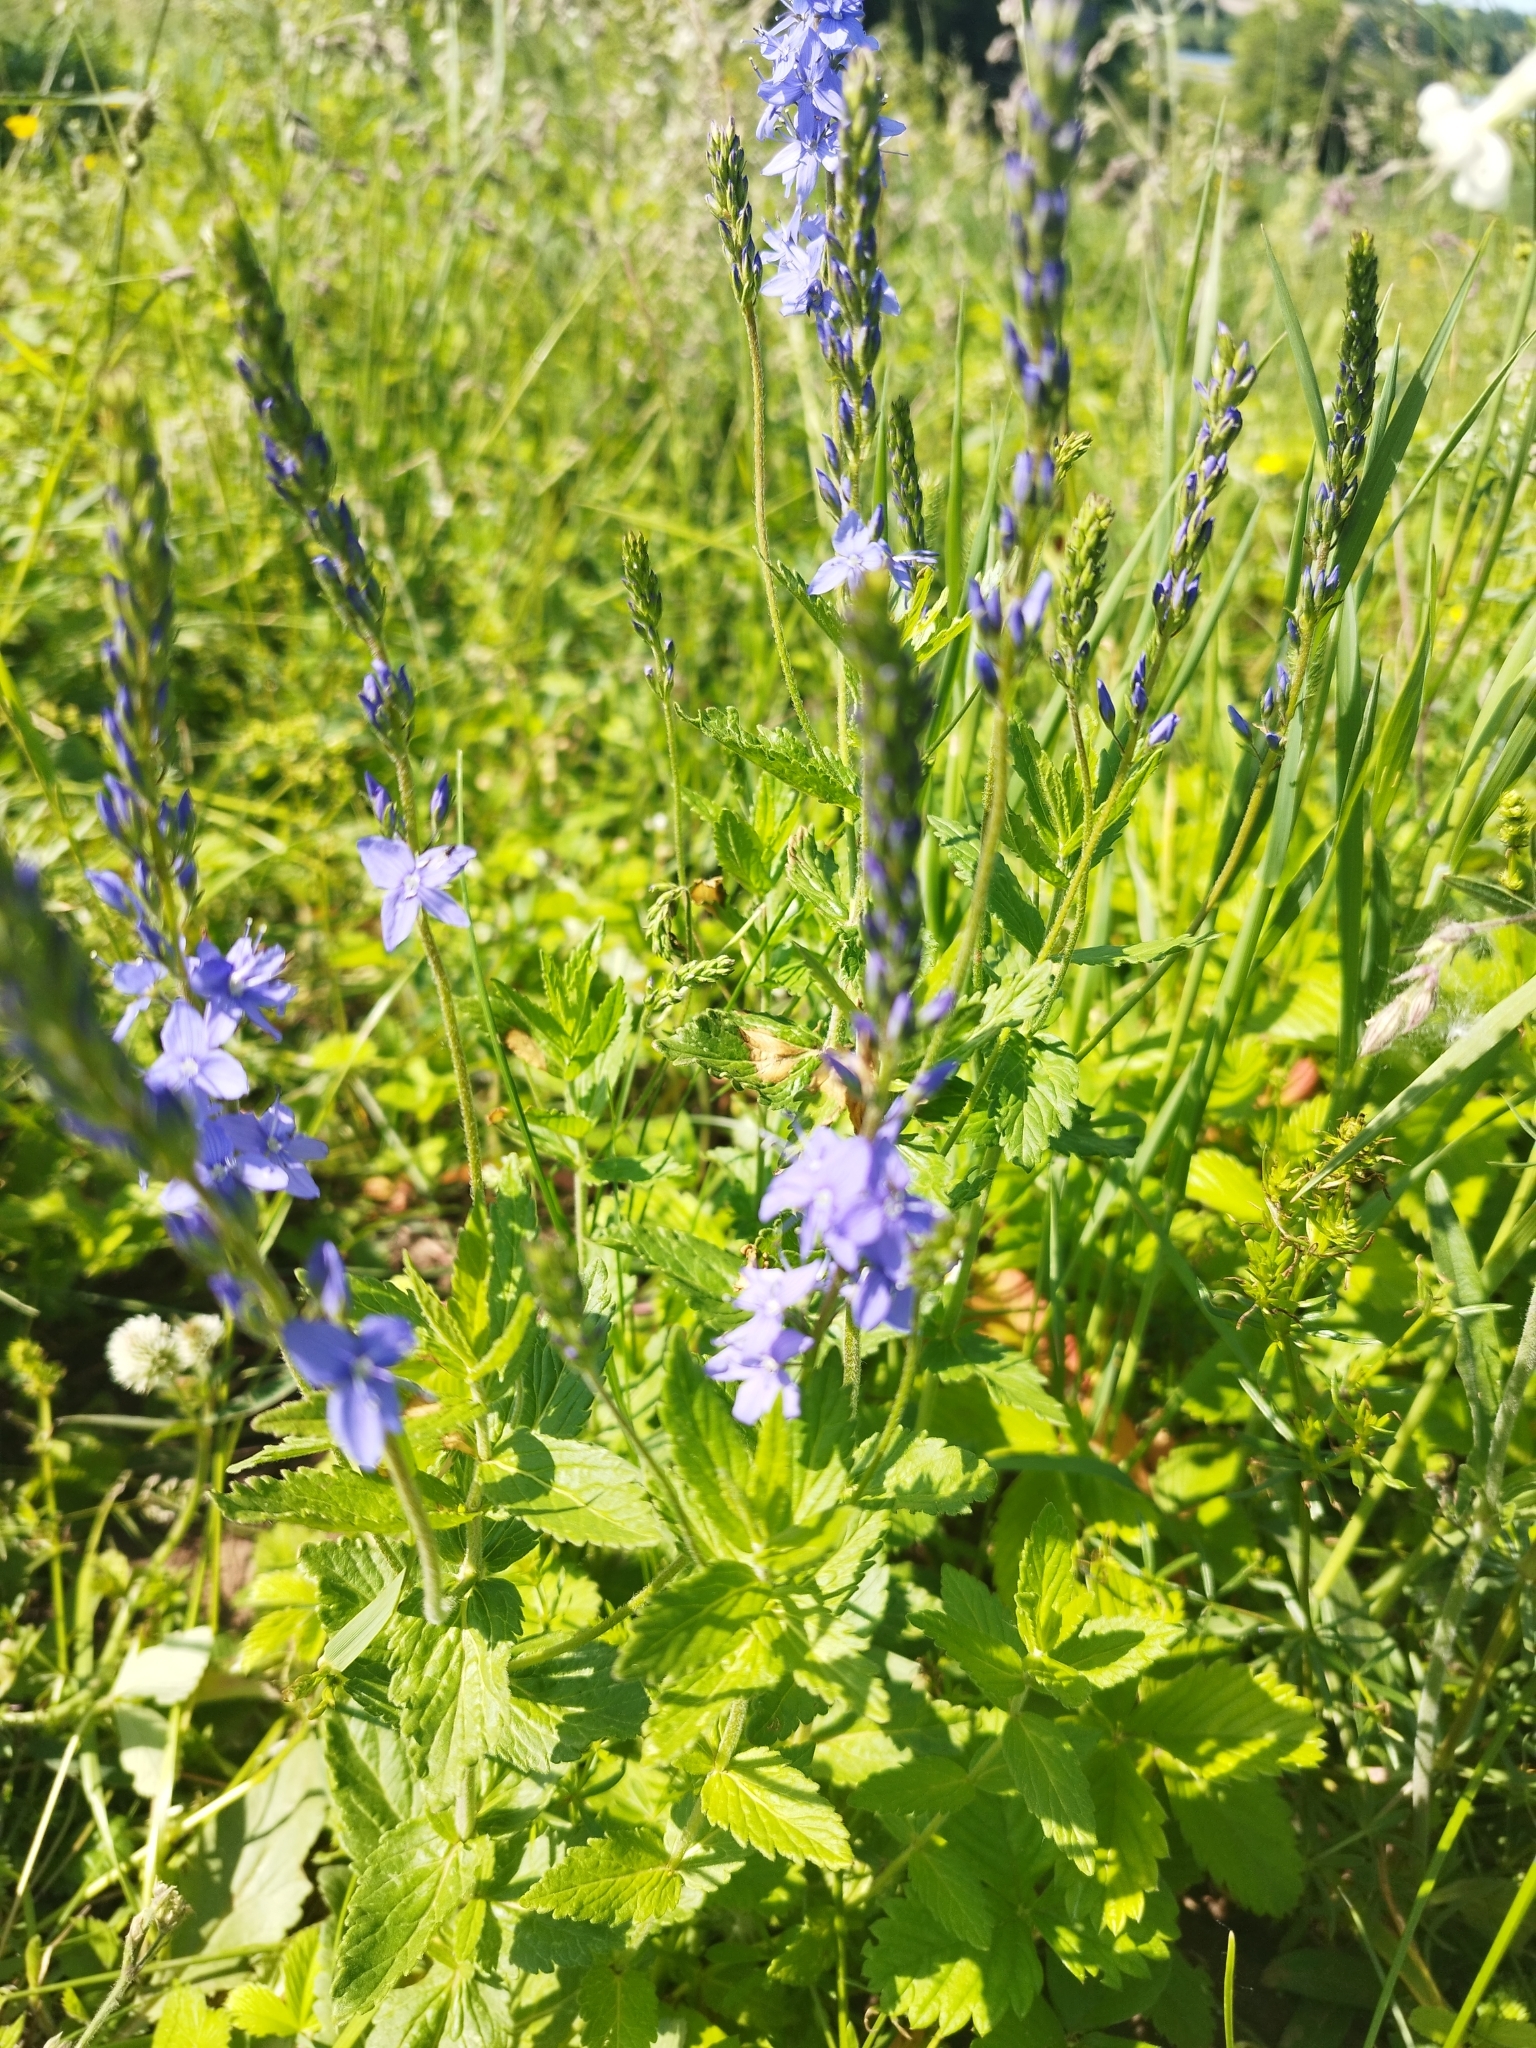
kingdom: Plantae
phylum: Tracheophyta
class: Magnoliopsida
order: Lamiales
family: Plantaginaceae
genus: Veronica
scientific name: Veronica teucrium
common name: Large speedwell
